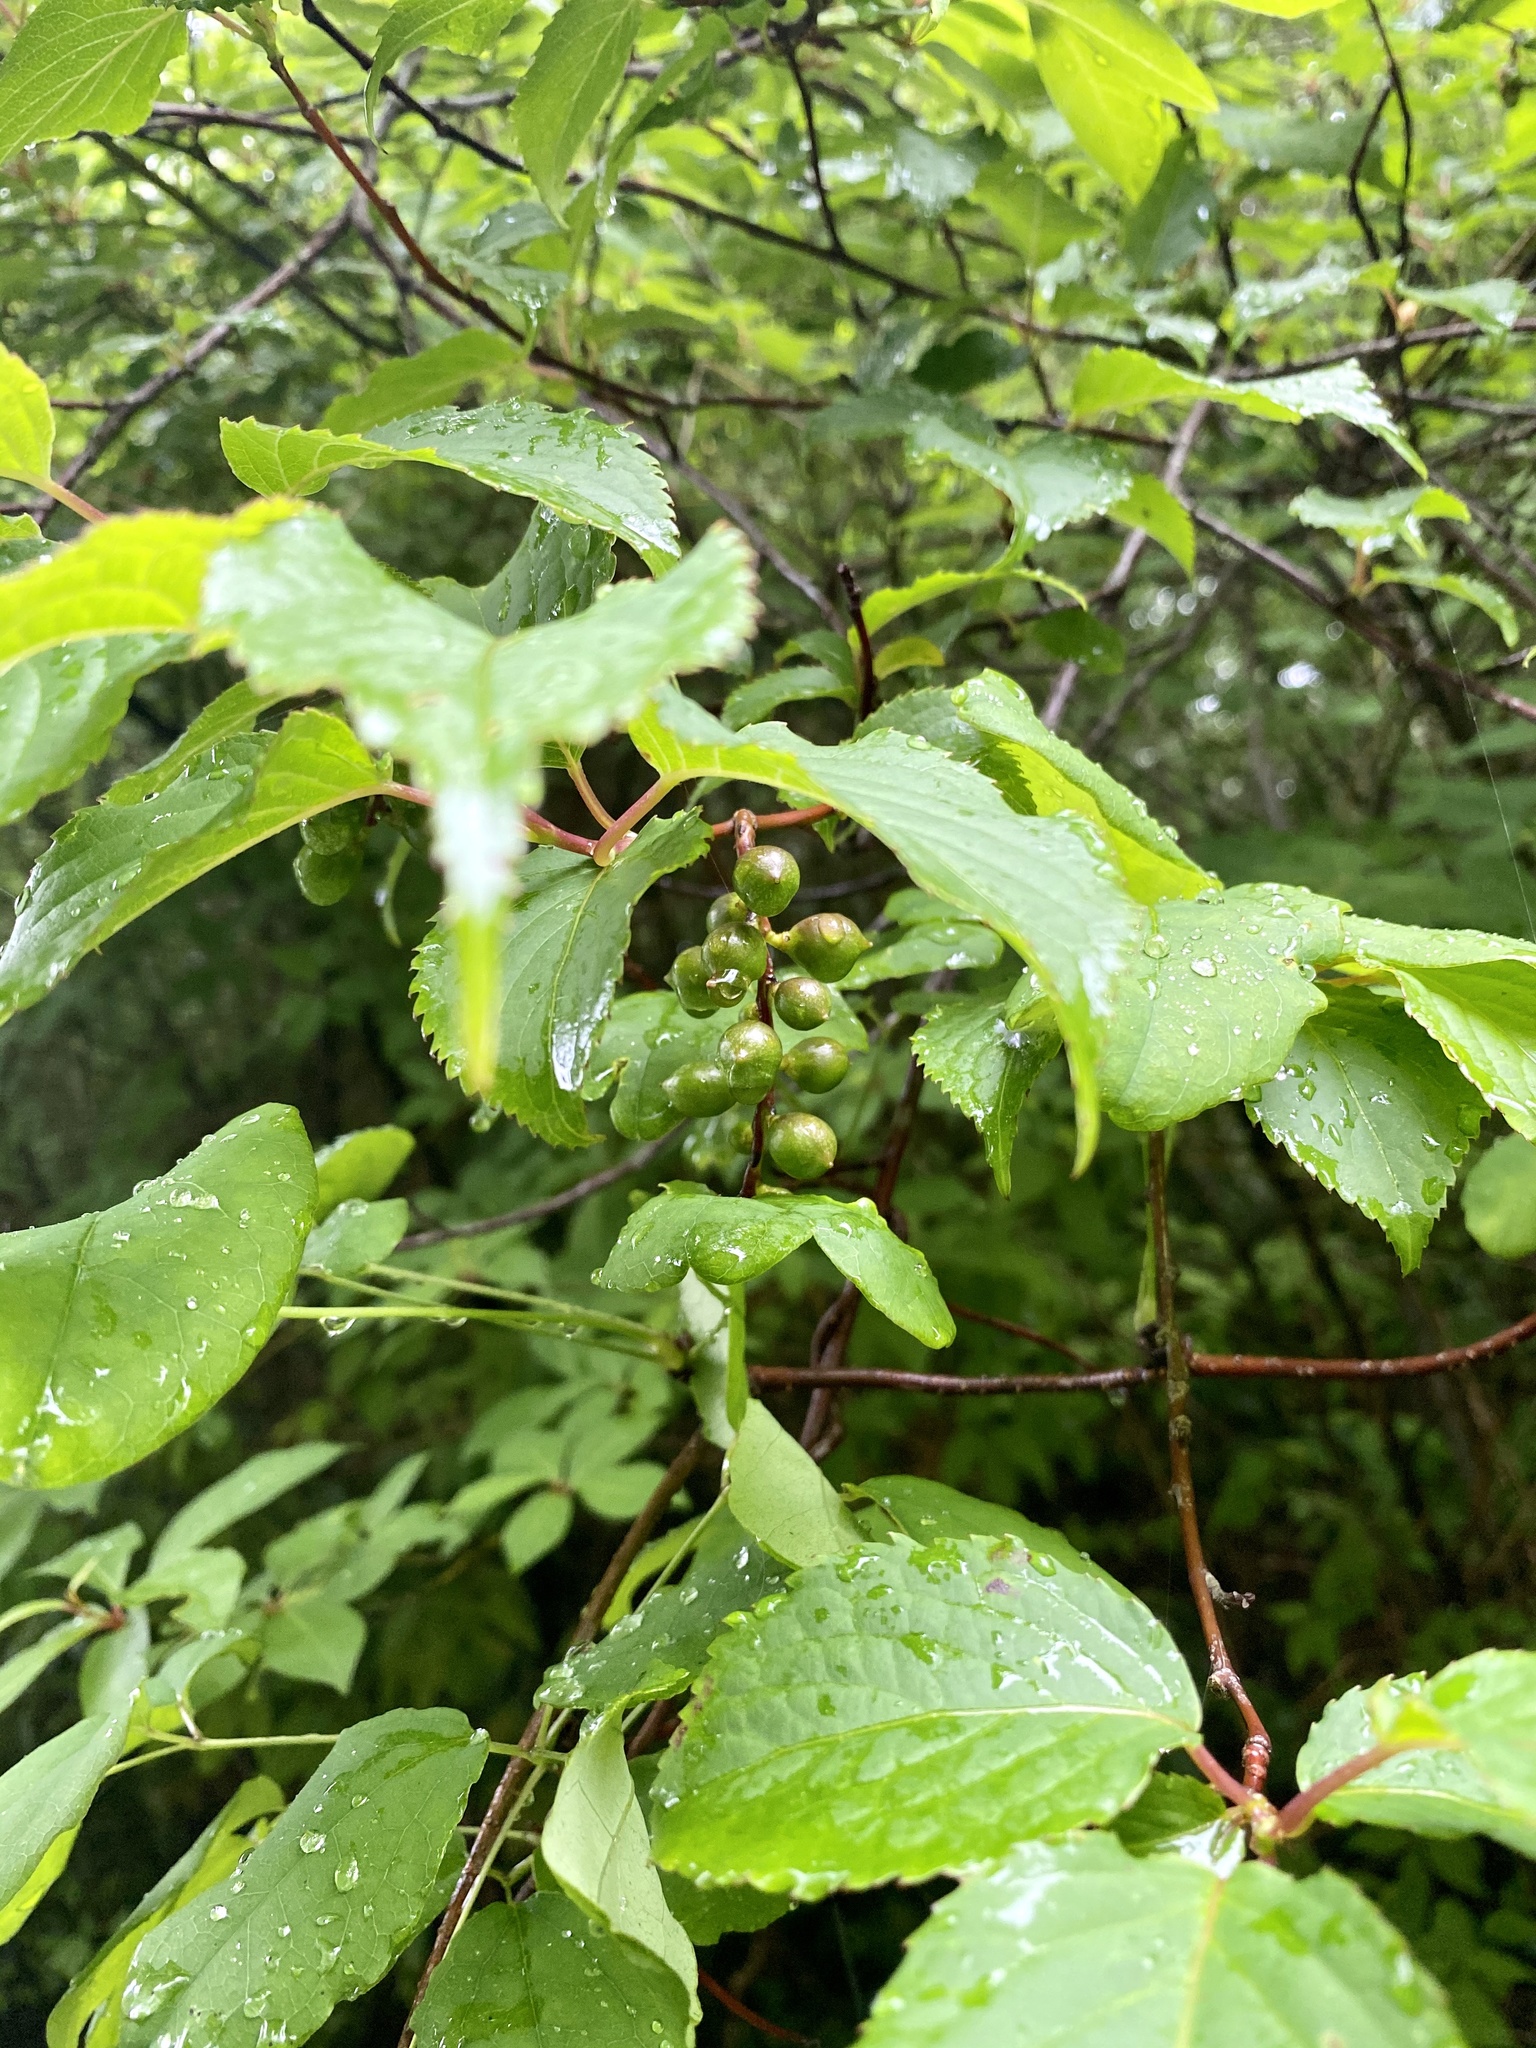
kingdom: Plantae
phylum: Tracheophyta
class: Magnoliopsida
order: Crossosomatales
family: Stachyuraceae
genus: Stachyurus
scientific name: Stachyurus praecox
